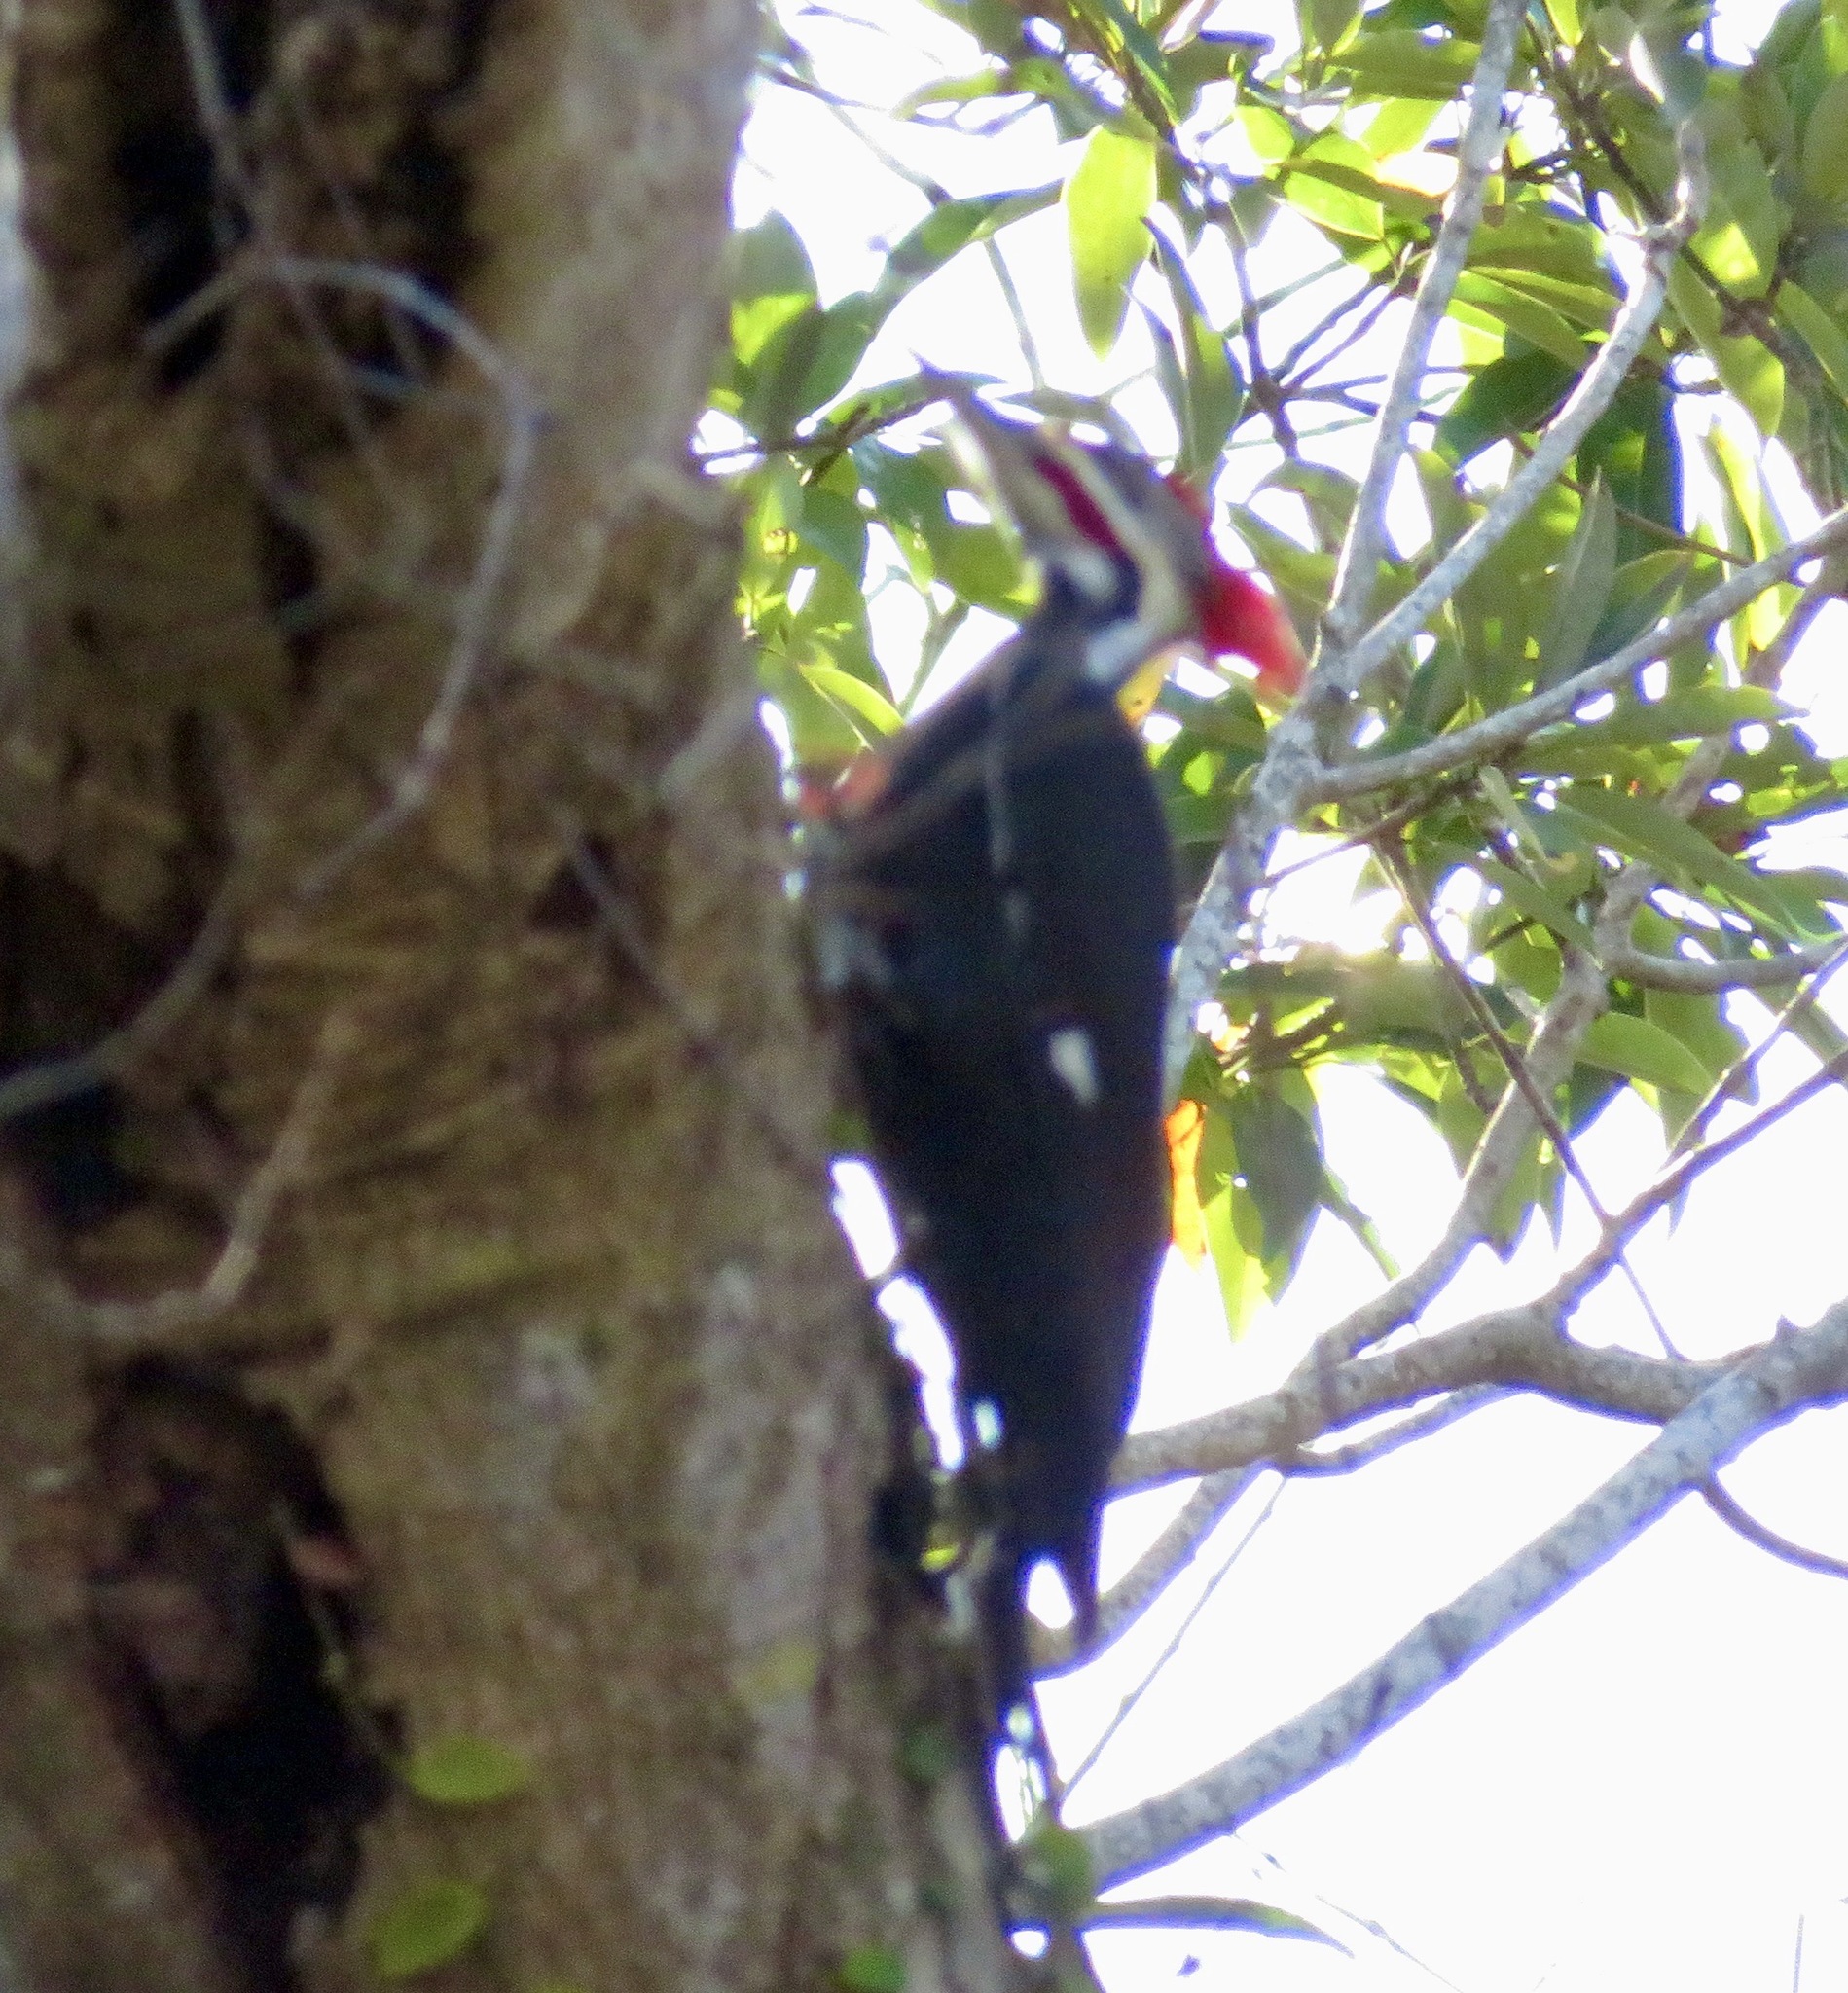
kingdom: Animalia
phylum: Chordata
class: Aves
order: Piciformes
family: Picidae
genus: Dryocopus
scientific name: Dryocopus pileatus
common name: Pileated woodpecker
